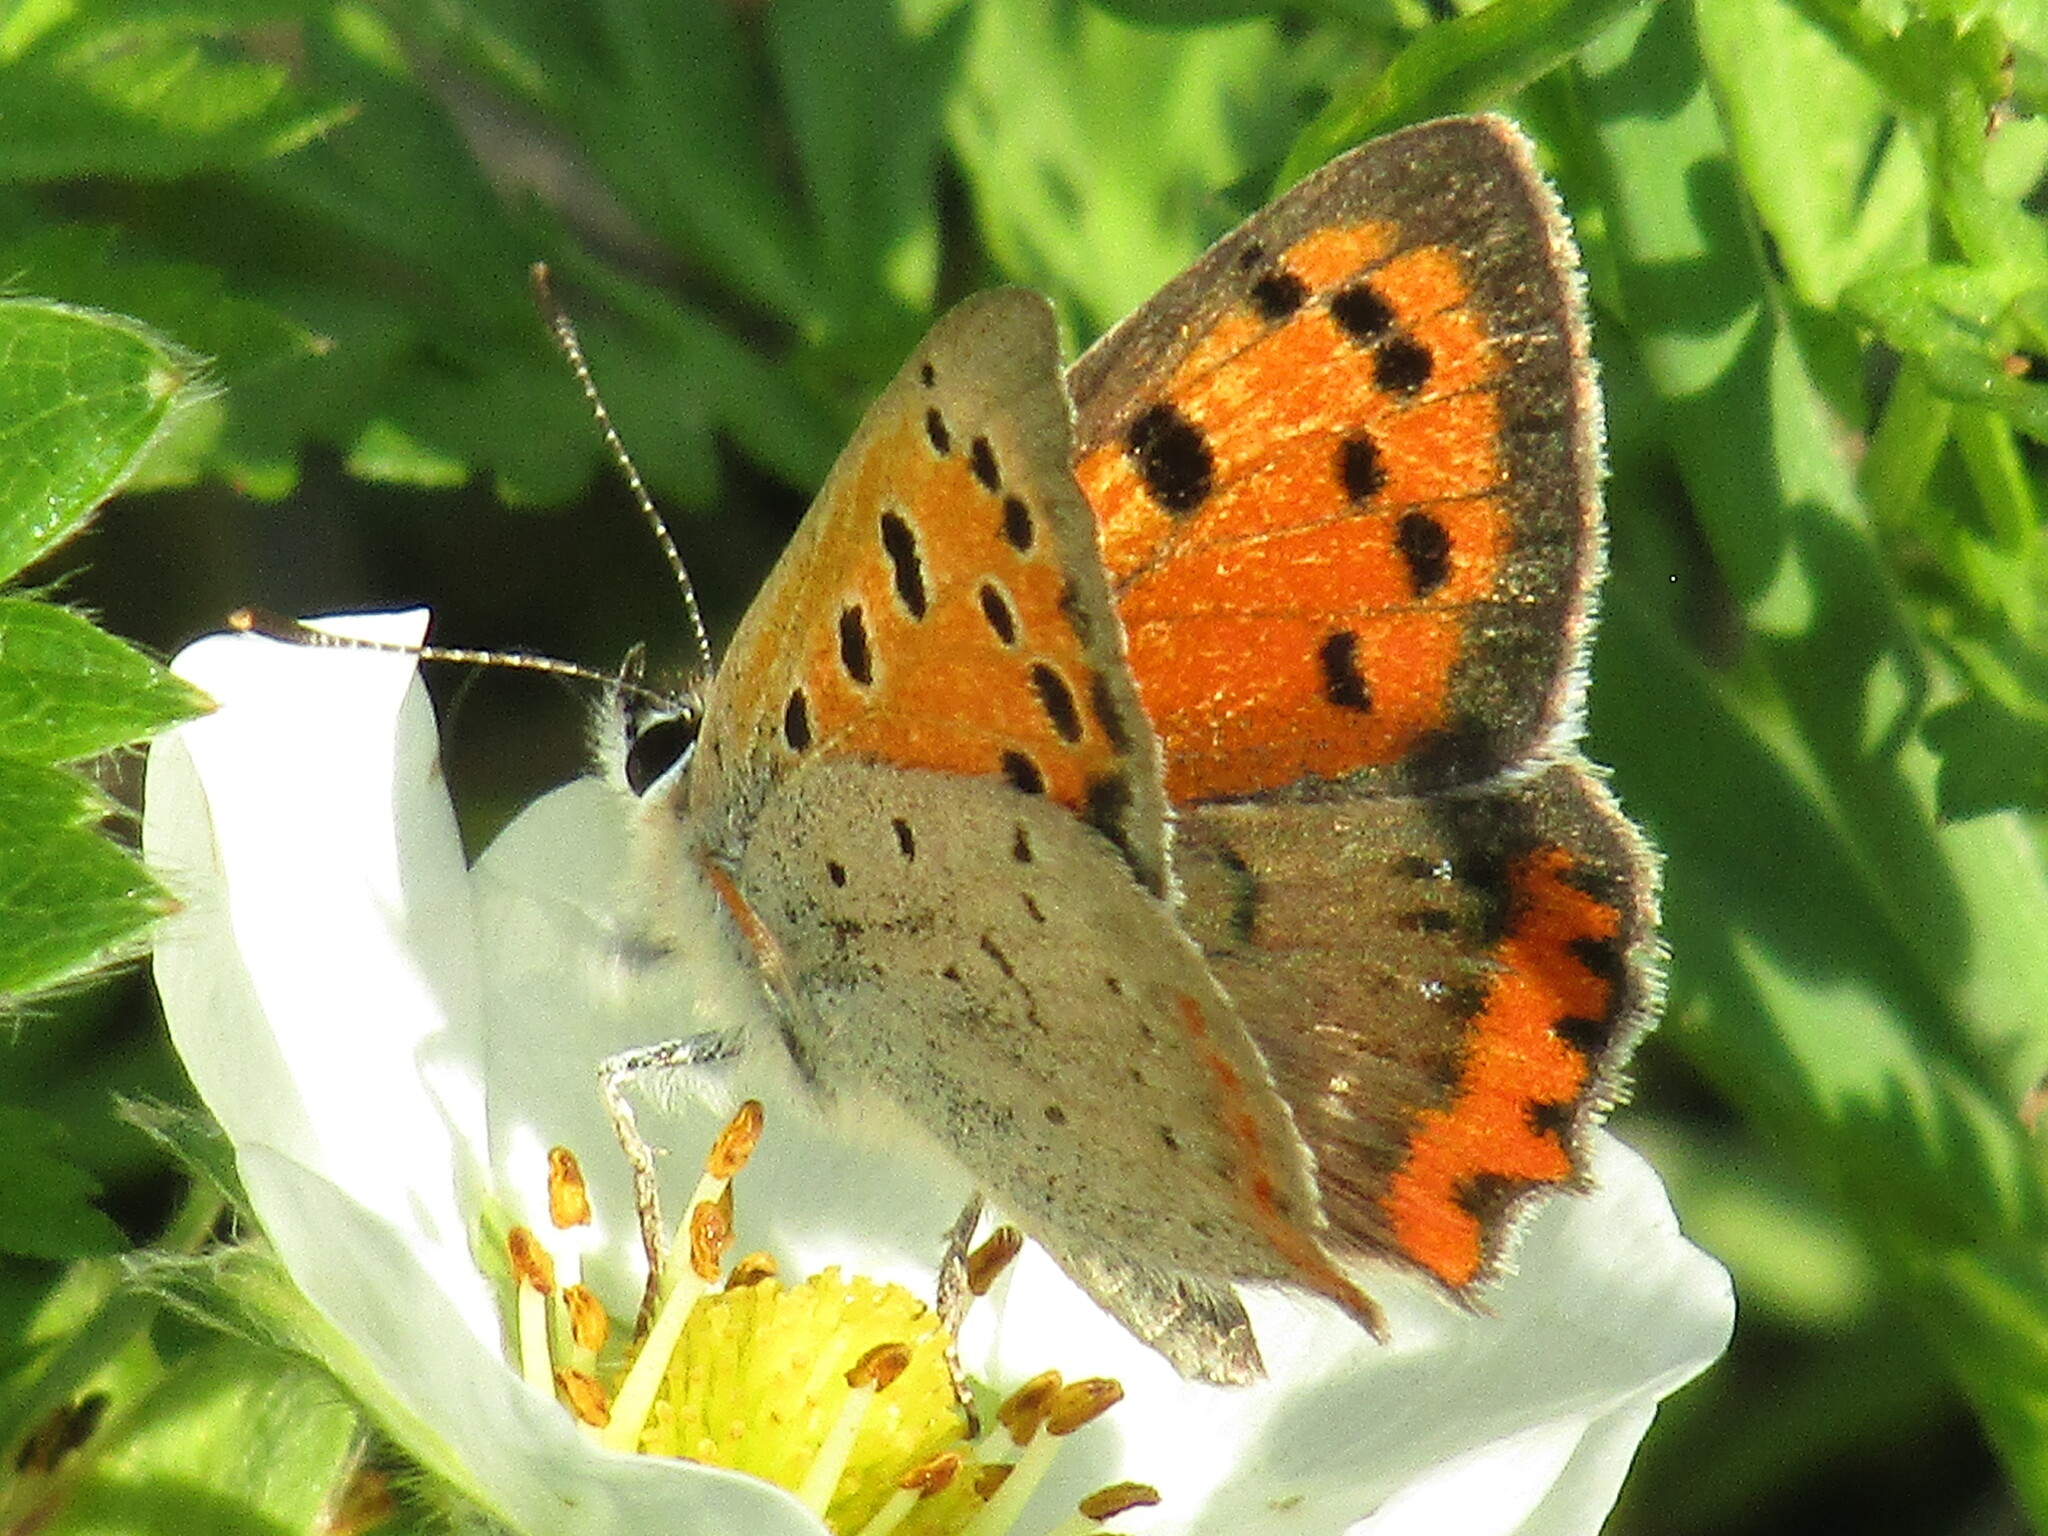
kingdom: Animalia
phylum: Arthropoda
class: Insecta
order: Lepidoptera
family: Lycaenidae
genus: Lycaena
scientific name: Lycaena phlaeas
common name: Small copper
